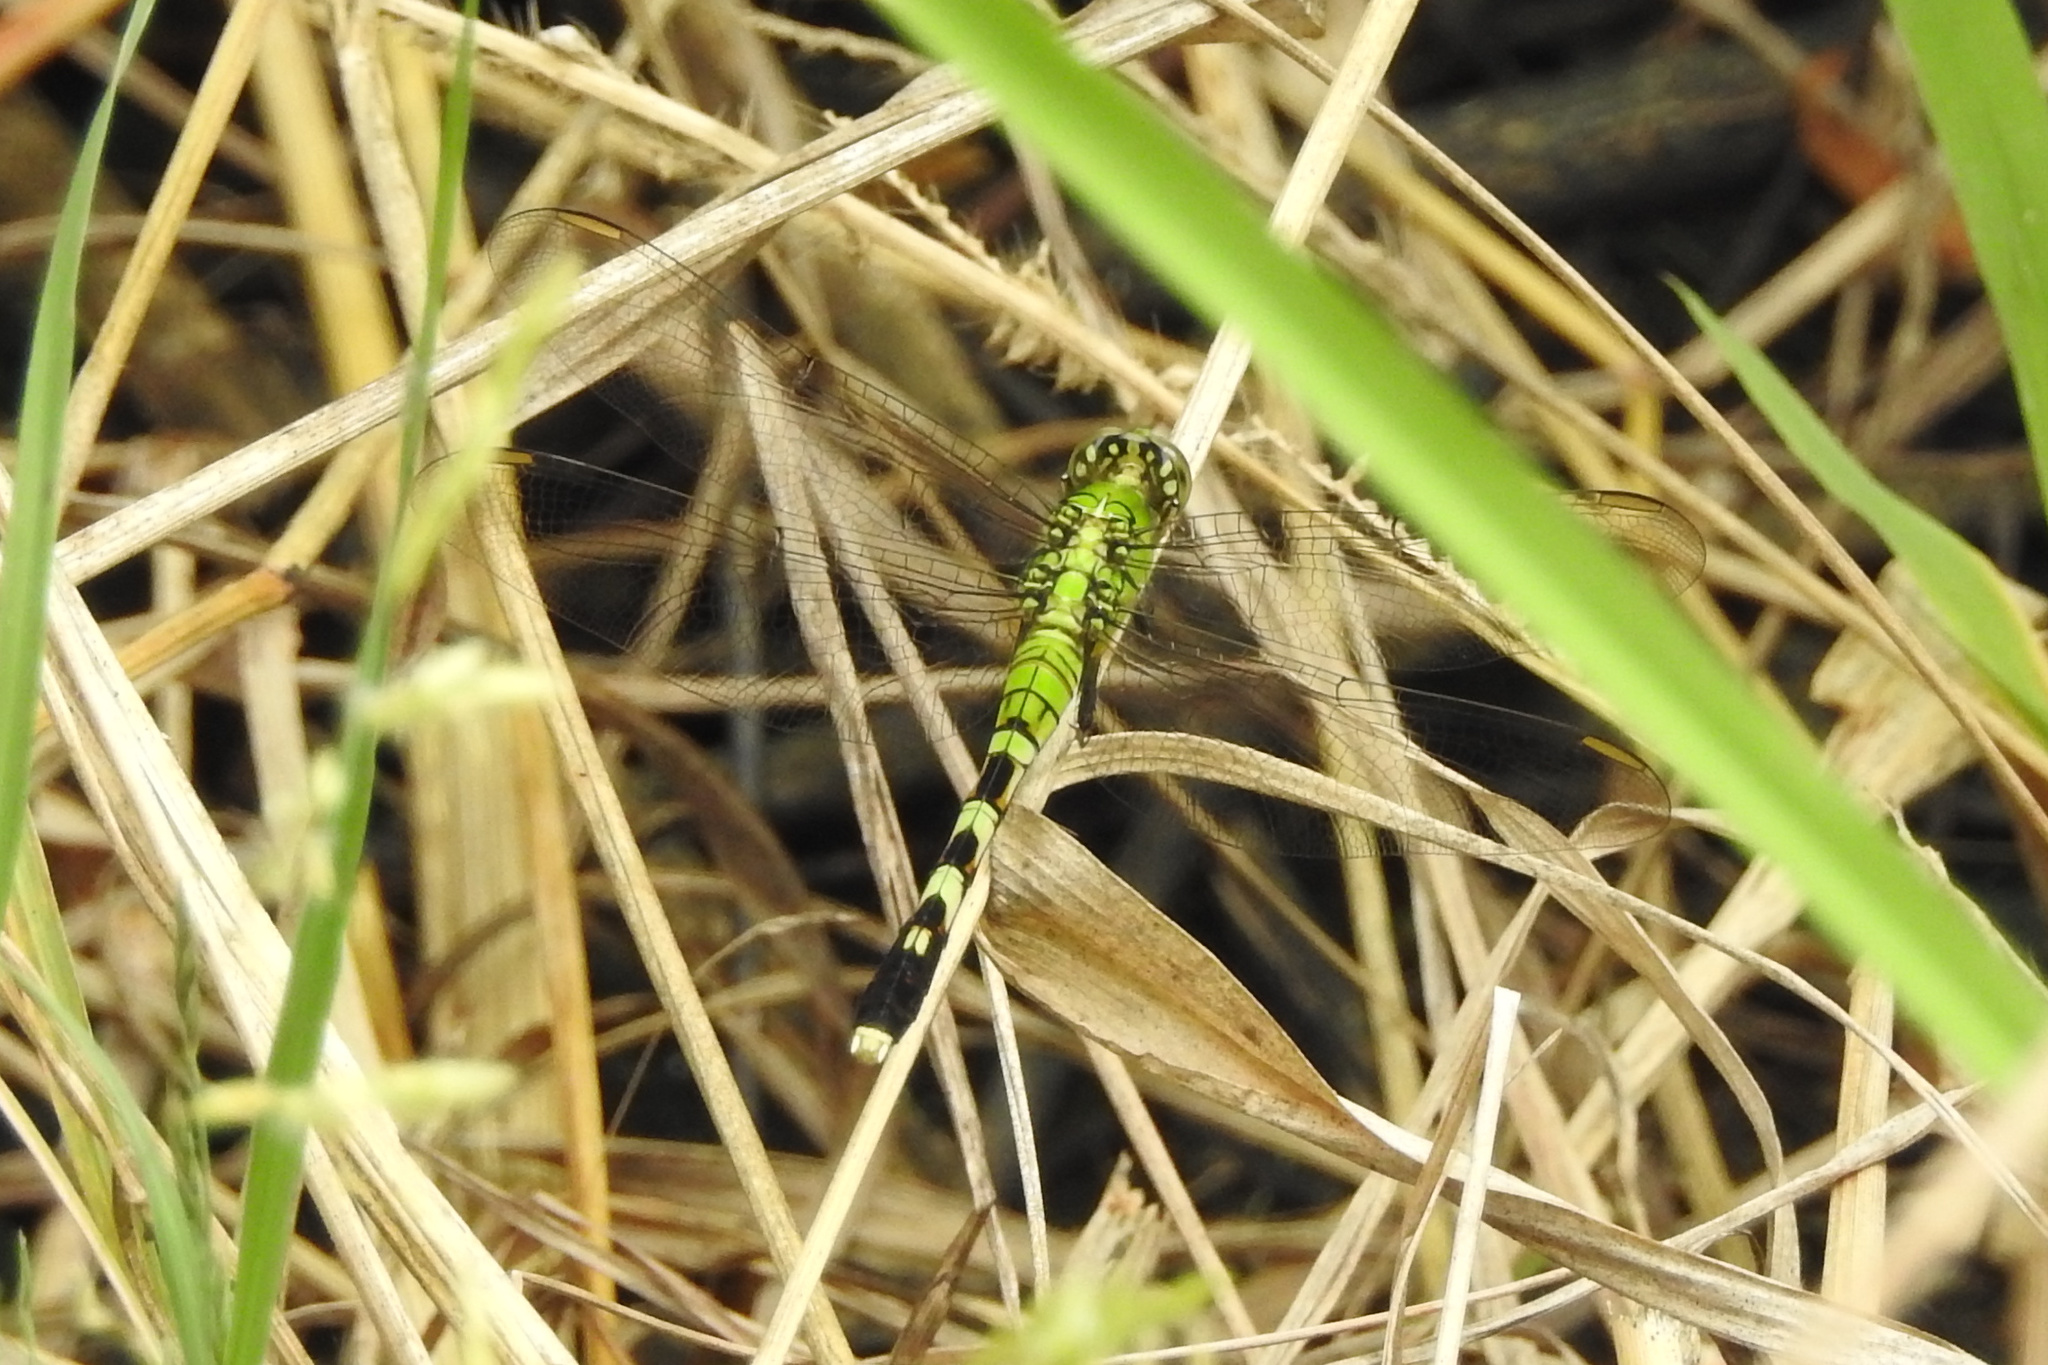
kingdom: Animalia
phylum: Arthropoda
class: Insecta
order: Odonata
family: Libellulidae
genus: Erythemis
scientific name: Erythemis simplicicollis
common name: Eastern pondhawk
